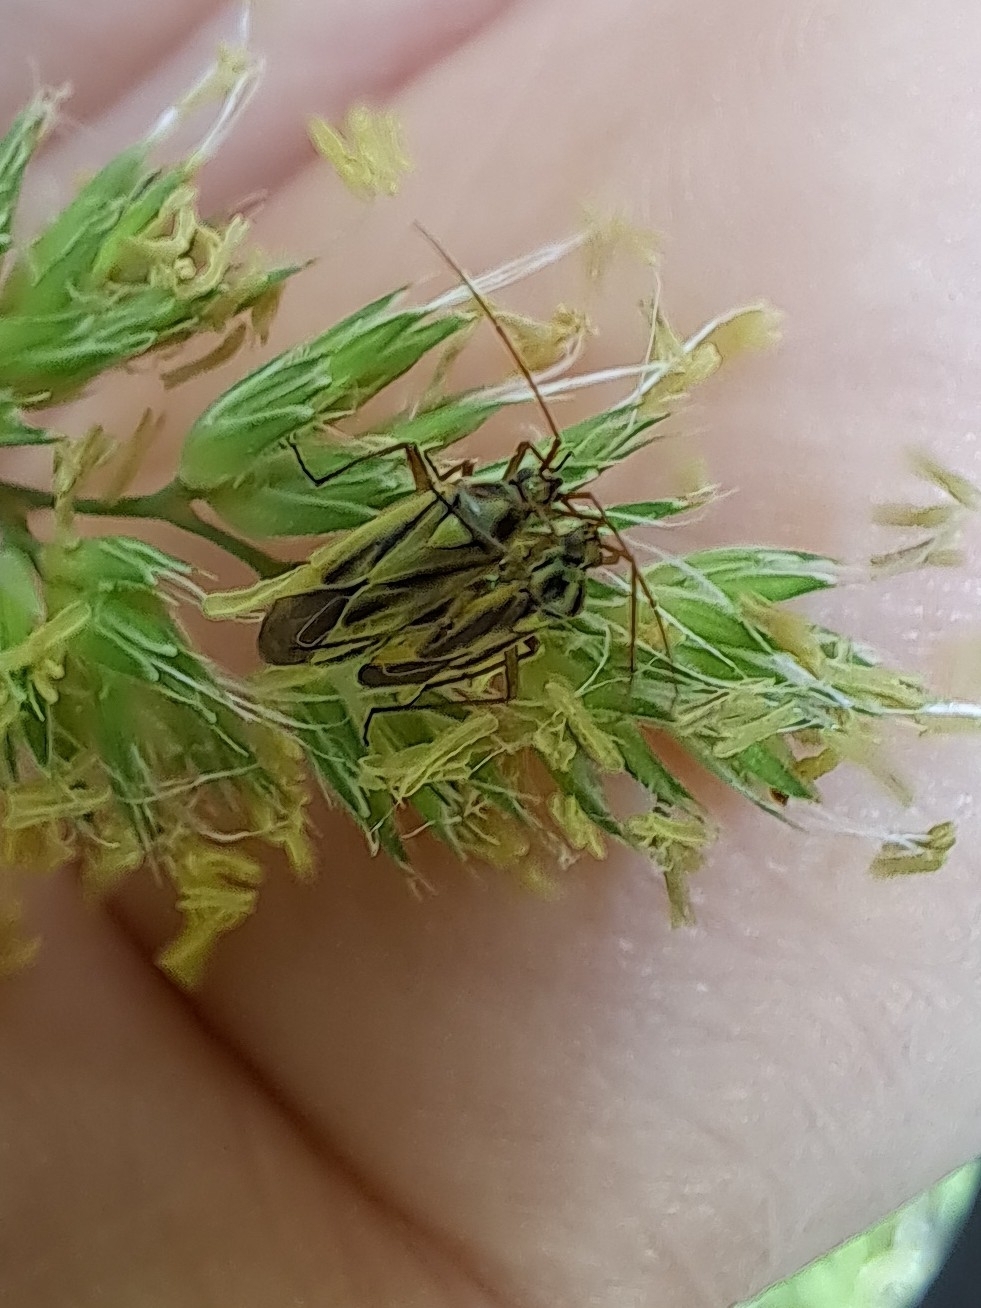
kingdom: Animalia
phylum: Arthropoda
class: Insecta
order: Hemiptera
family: Miridae
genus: Stenotus
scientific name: Stenotus binotatus
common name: Plant bug
